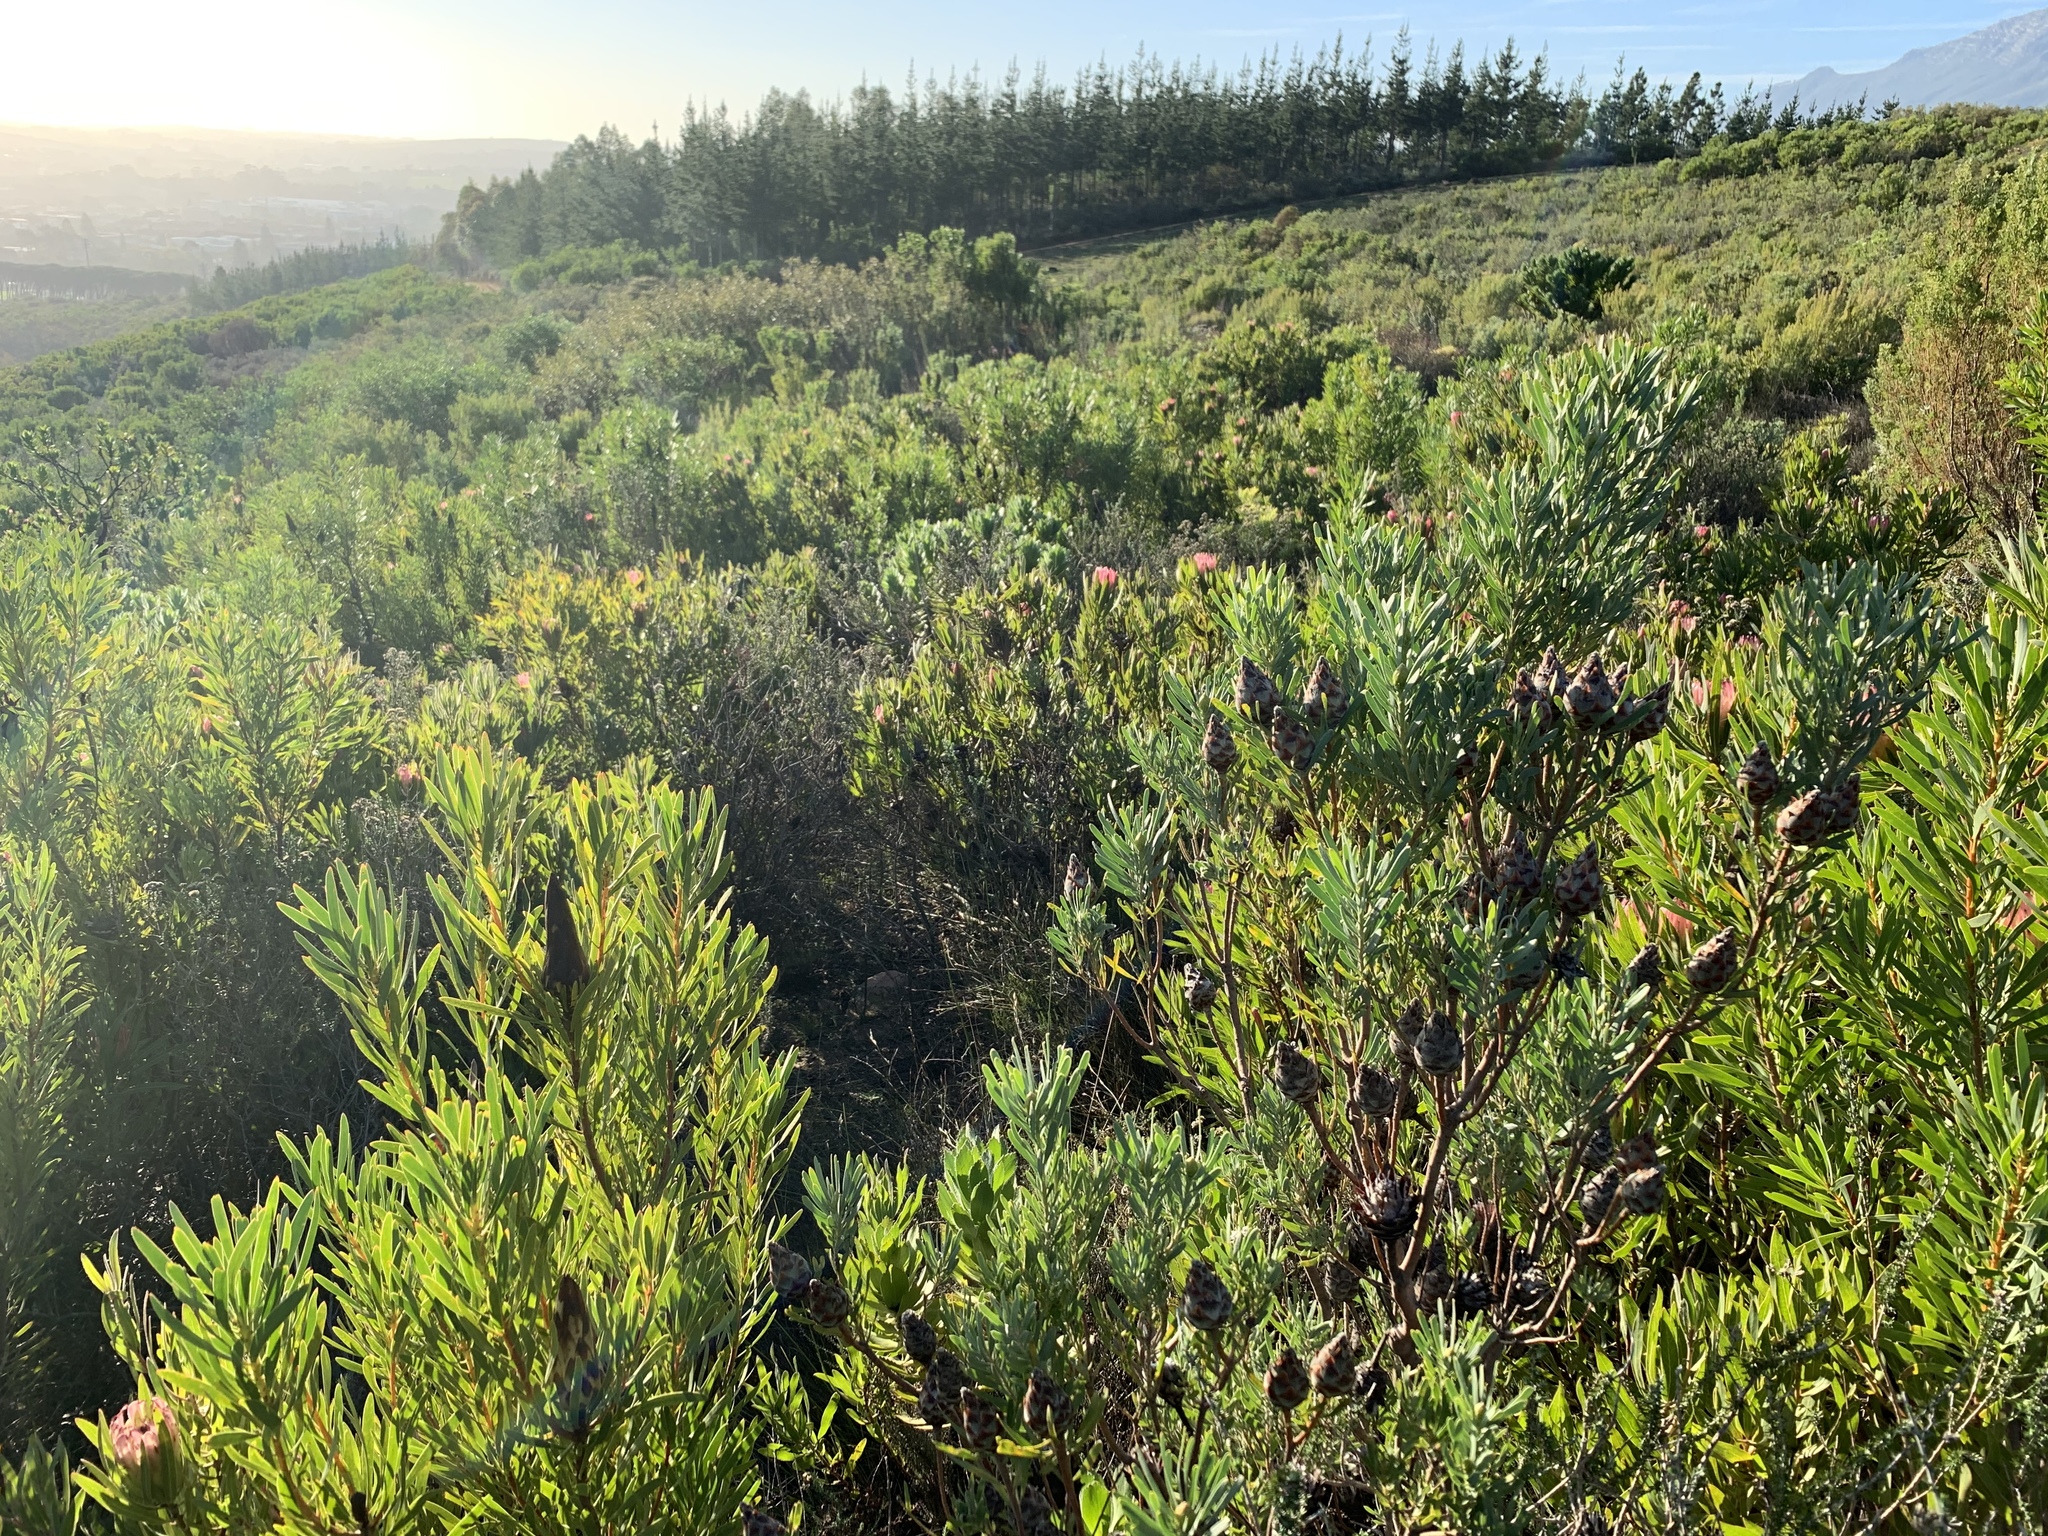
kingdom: Plantae
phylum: Tracheophyta
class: Magnoliopsida
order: Proteales
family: Proteaceae
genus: Leucadendron
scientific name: Leucadendron rubrum
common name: Spinning top
